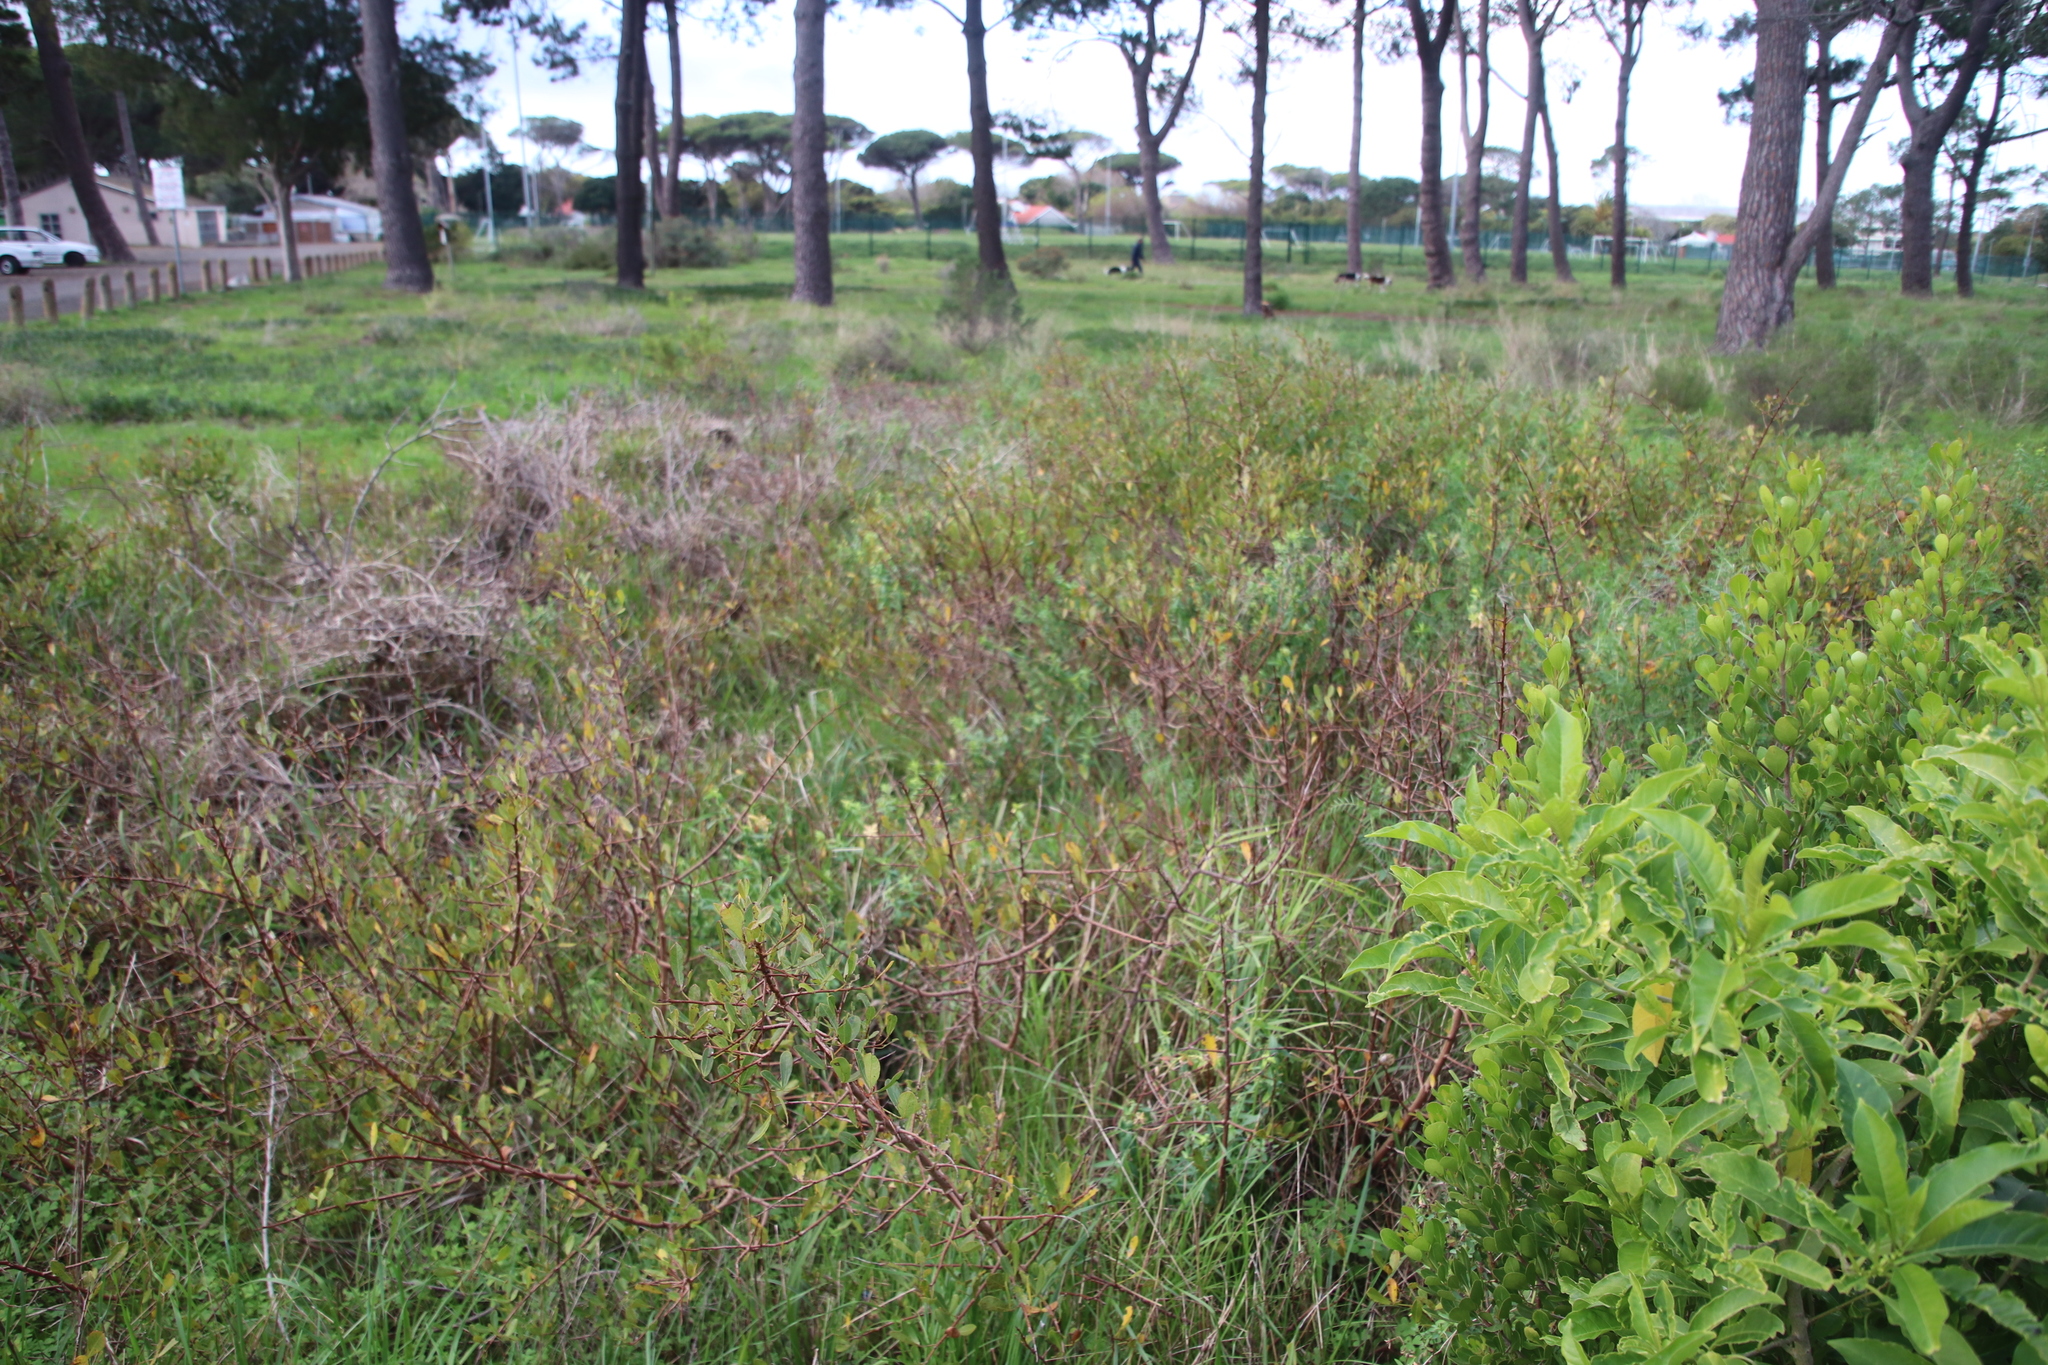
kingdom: Plantae
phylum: Tracheophyta
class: Magnoliopsida
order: Sapindales
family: Anacardiaceae
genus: Searsia
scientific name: Searsia laevigata
